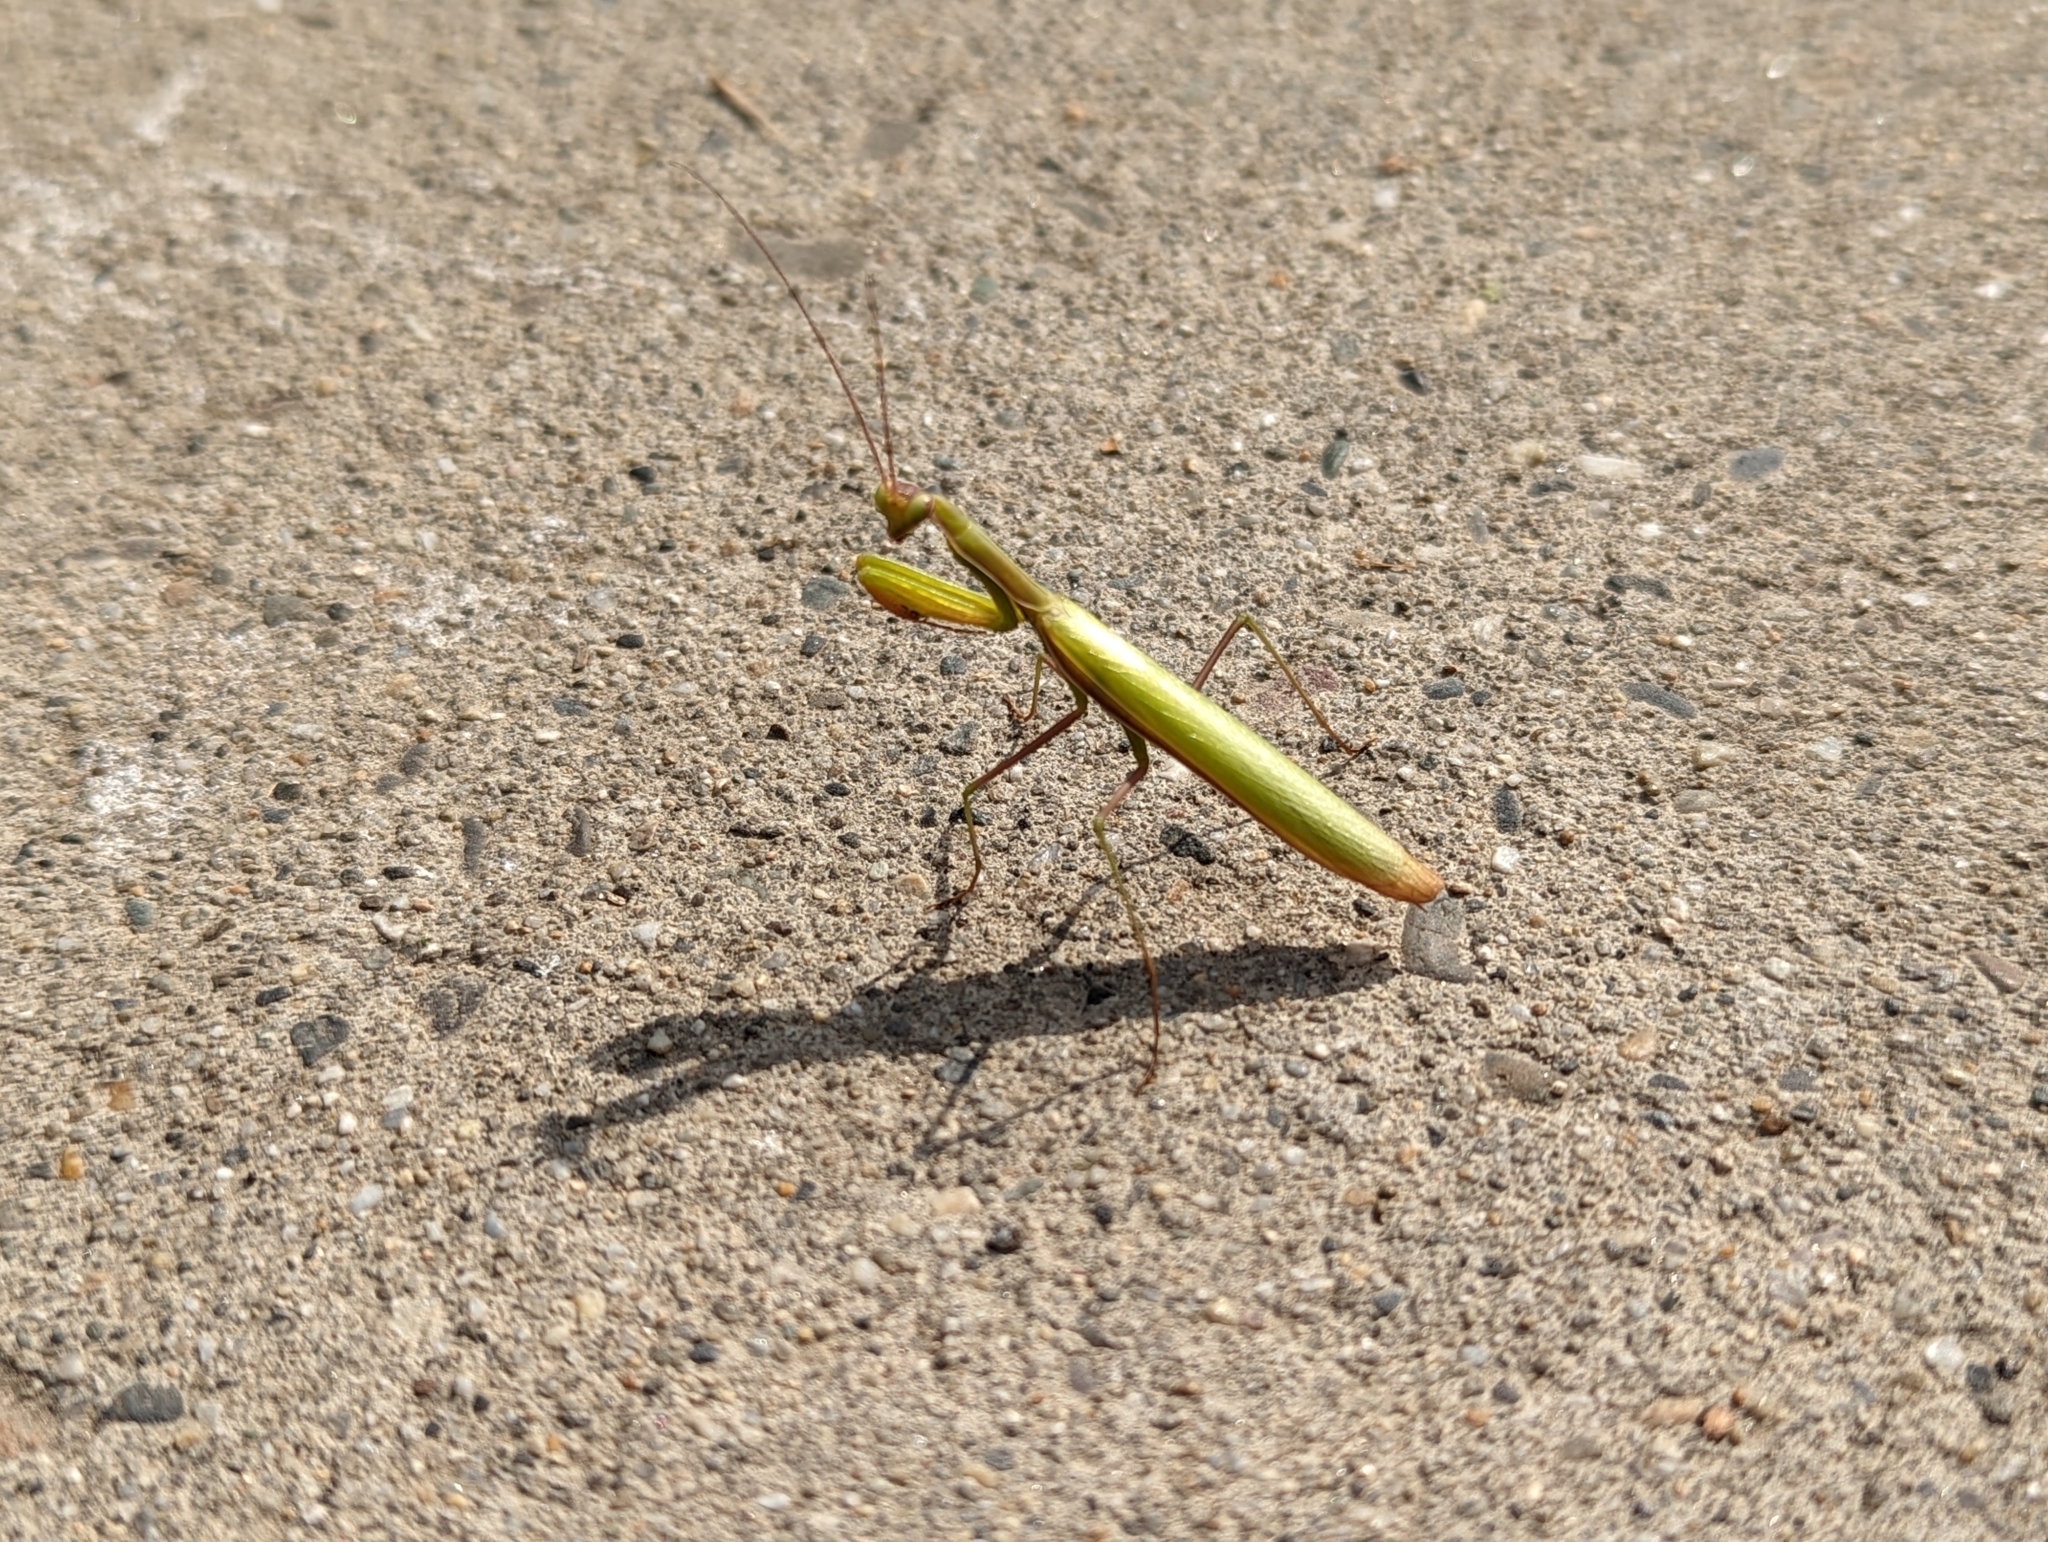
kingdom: Animalia
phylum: Arthropoda
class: Insecta
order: Mantodea
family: Mantidae
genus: Mantis
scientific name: Mantis religiosa
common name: Praying mantis
